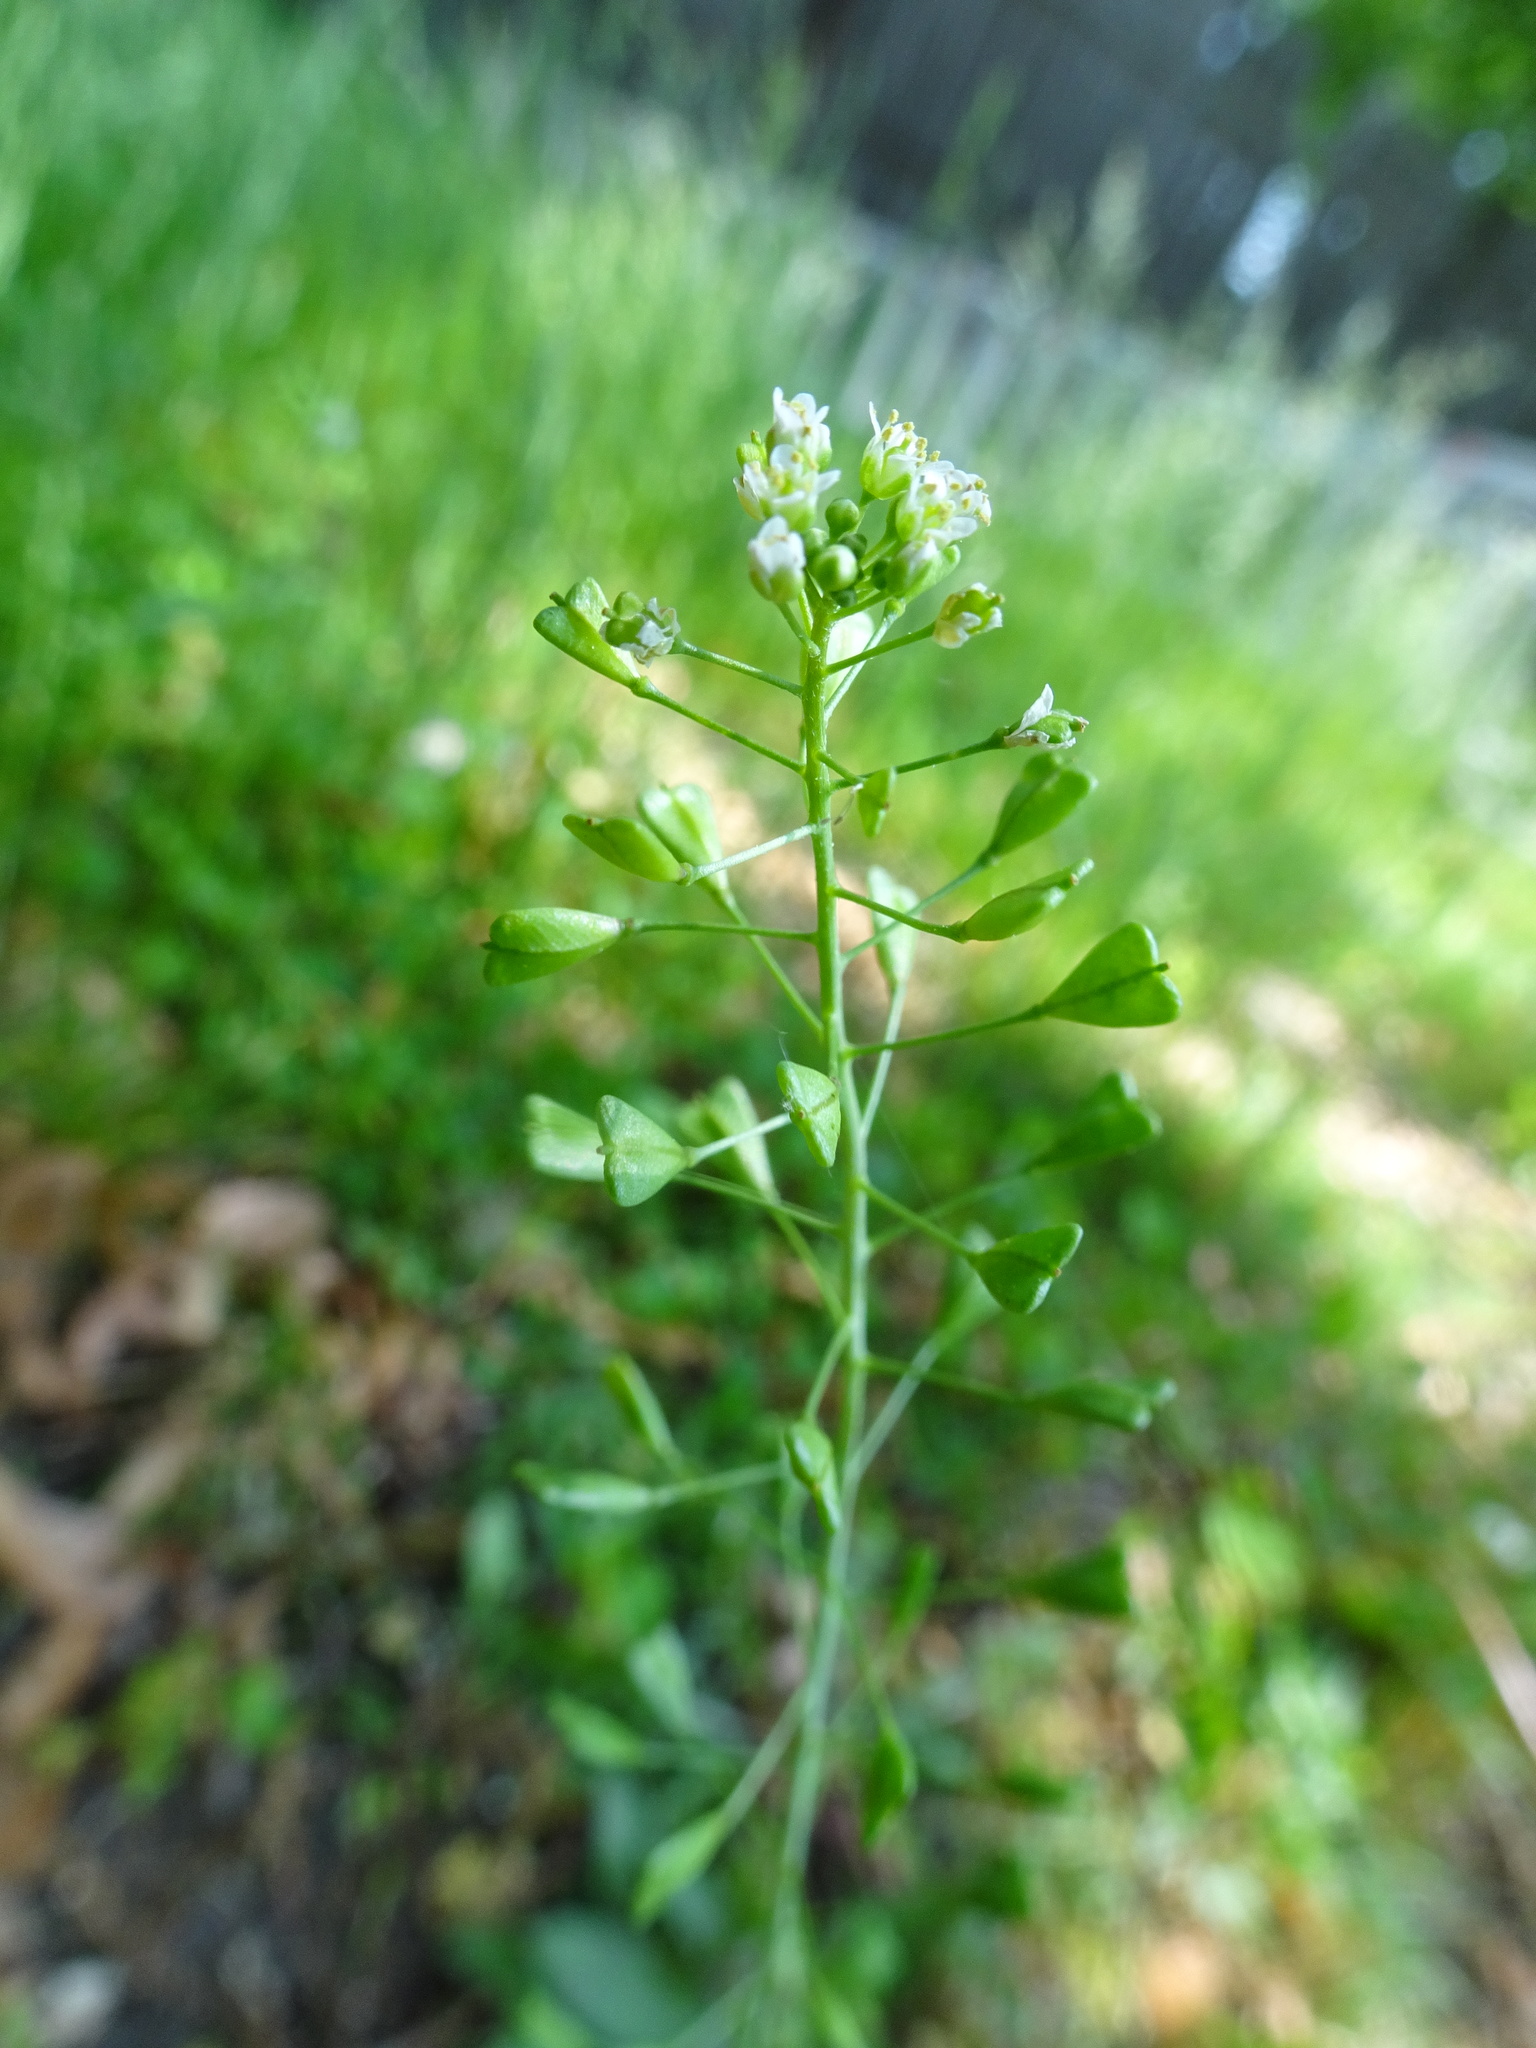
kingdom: Plantae
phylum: Tracheophyta
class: Magnoliopsida
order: Brassicales
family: Brassicaceae
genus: Capsella
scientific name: Capsella bursa-pastoris
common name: Shepherd's purse
